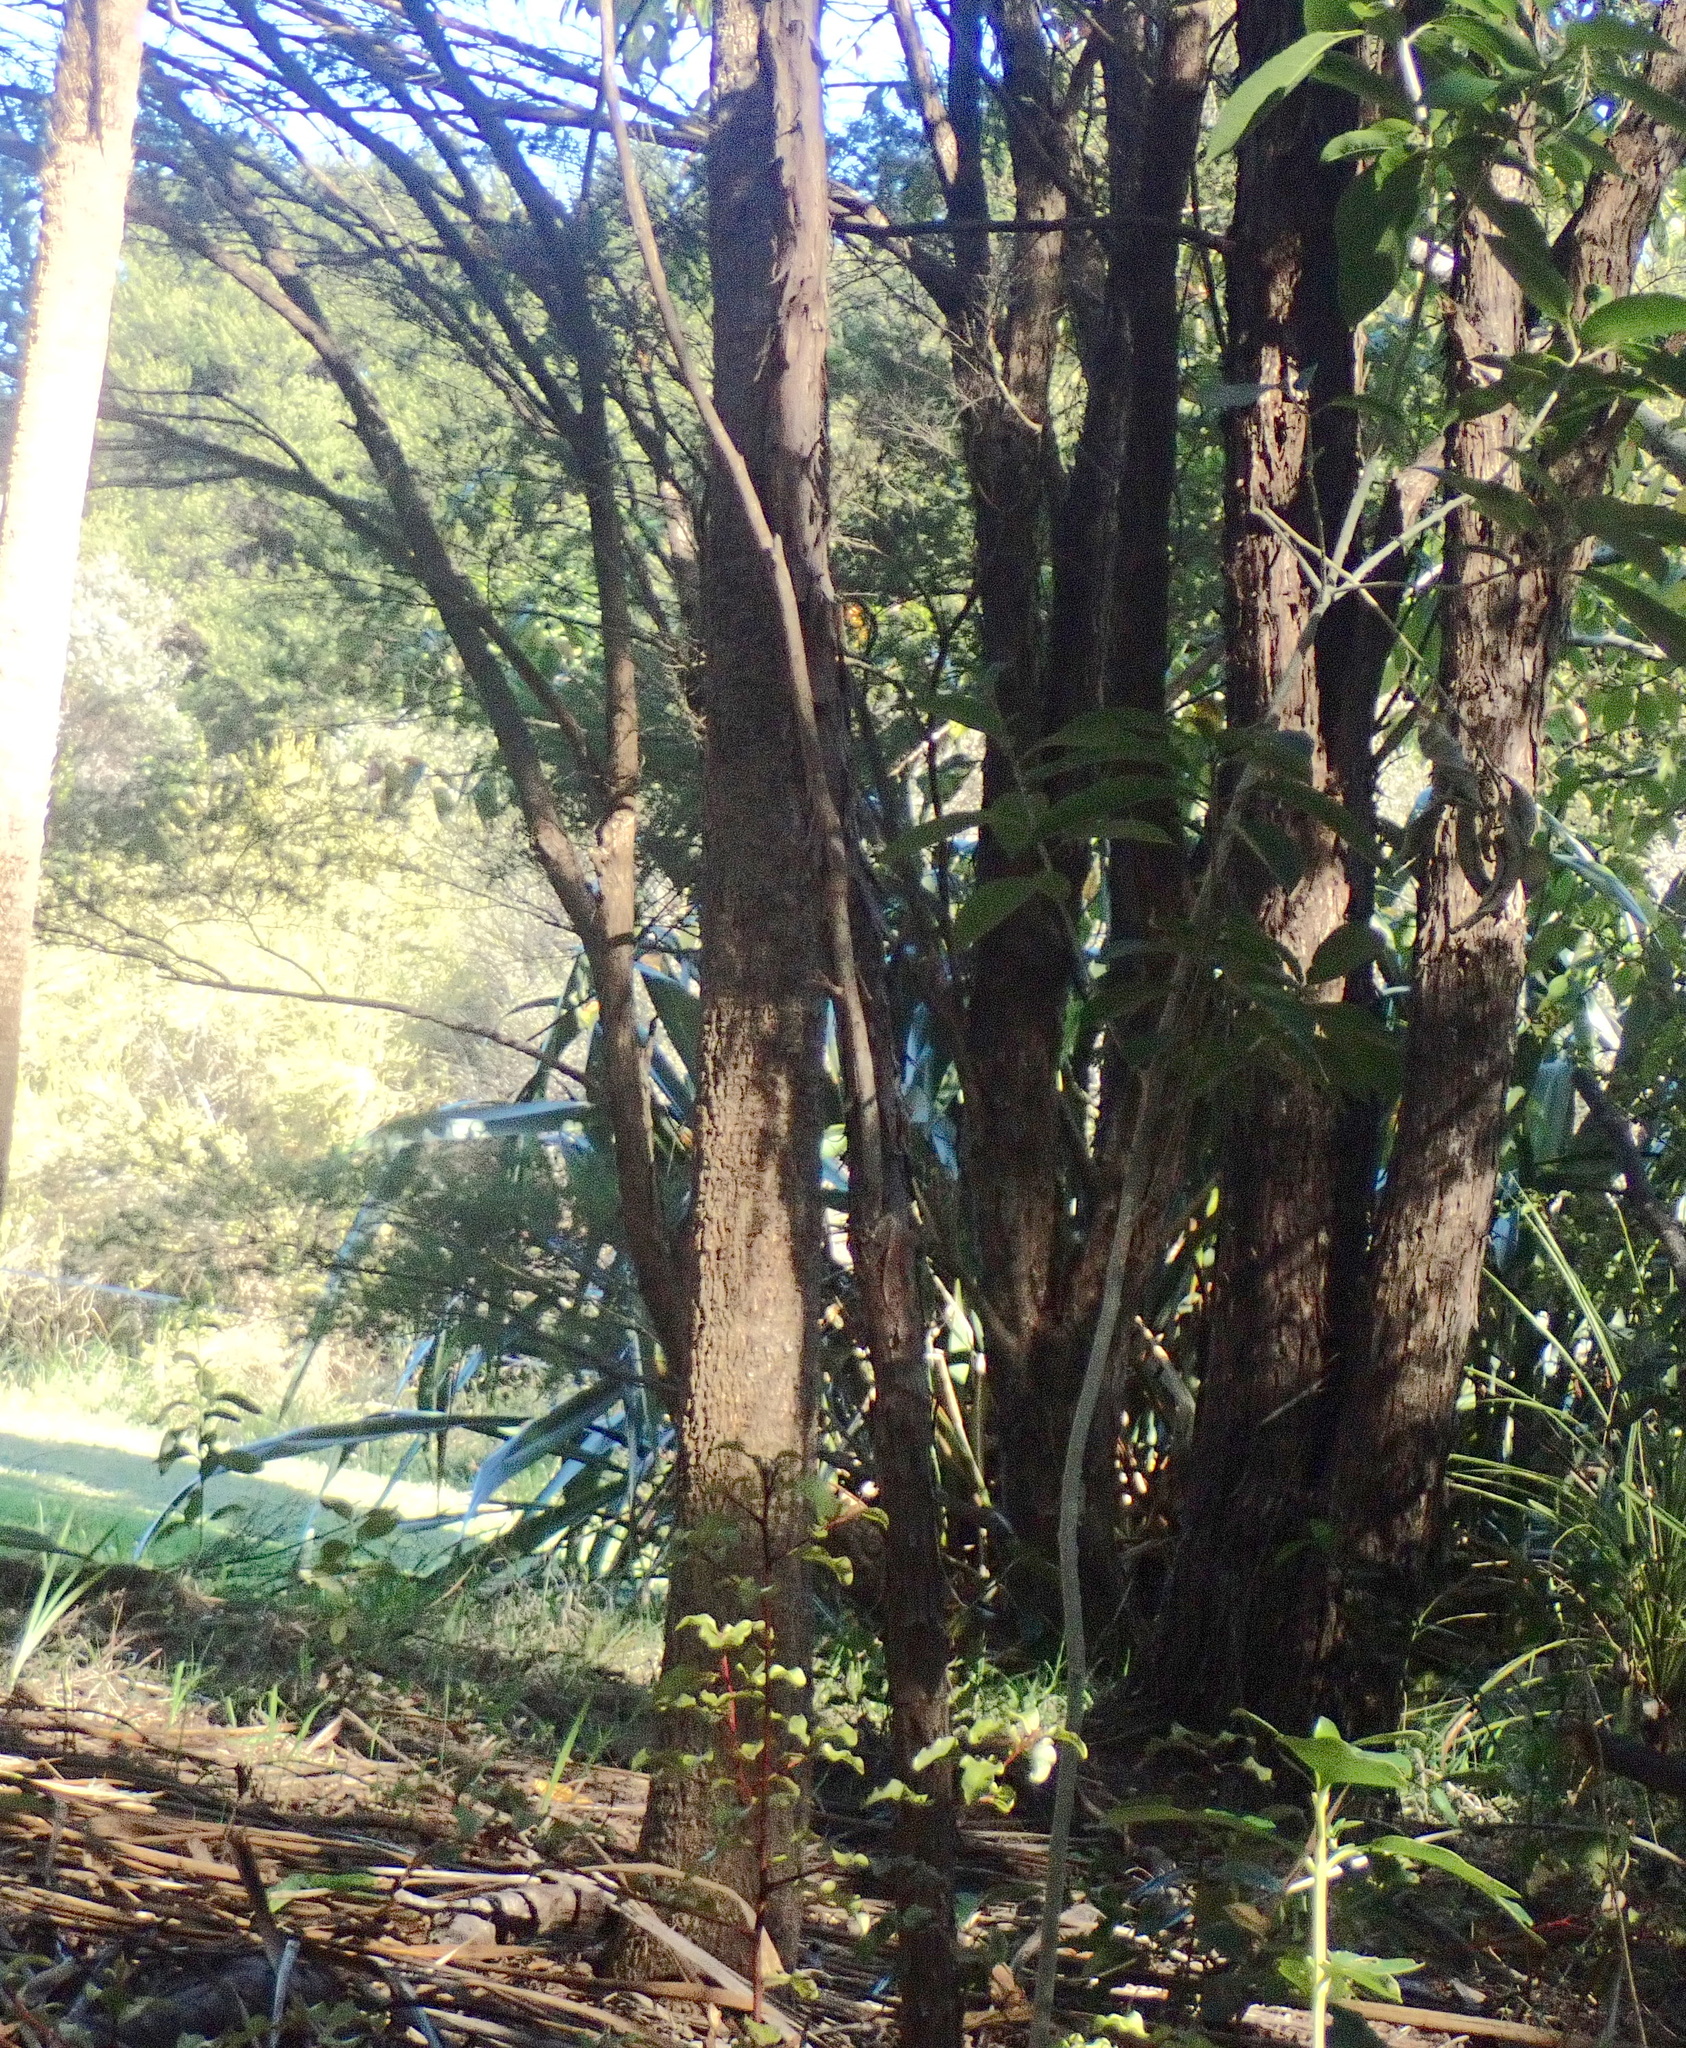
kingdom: Plantae
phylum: Tracheophyta
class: Liliopsida
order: Asparagales
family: Asparagaceae
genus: Cordyline
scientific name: Cordyline australis
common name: Cabbage-palm
